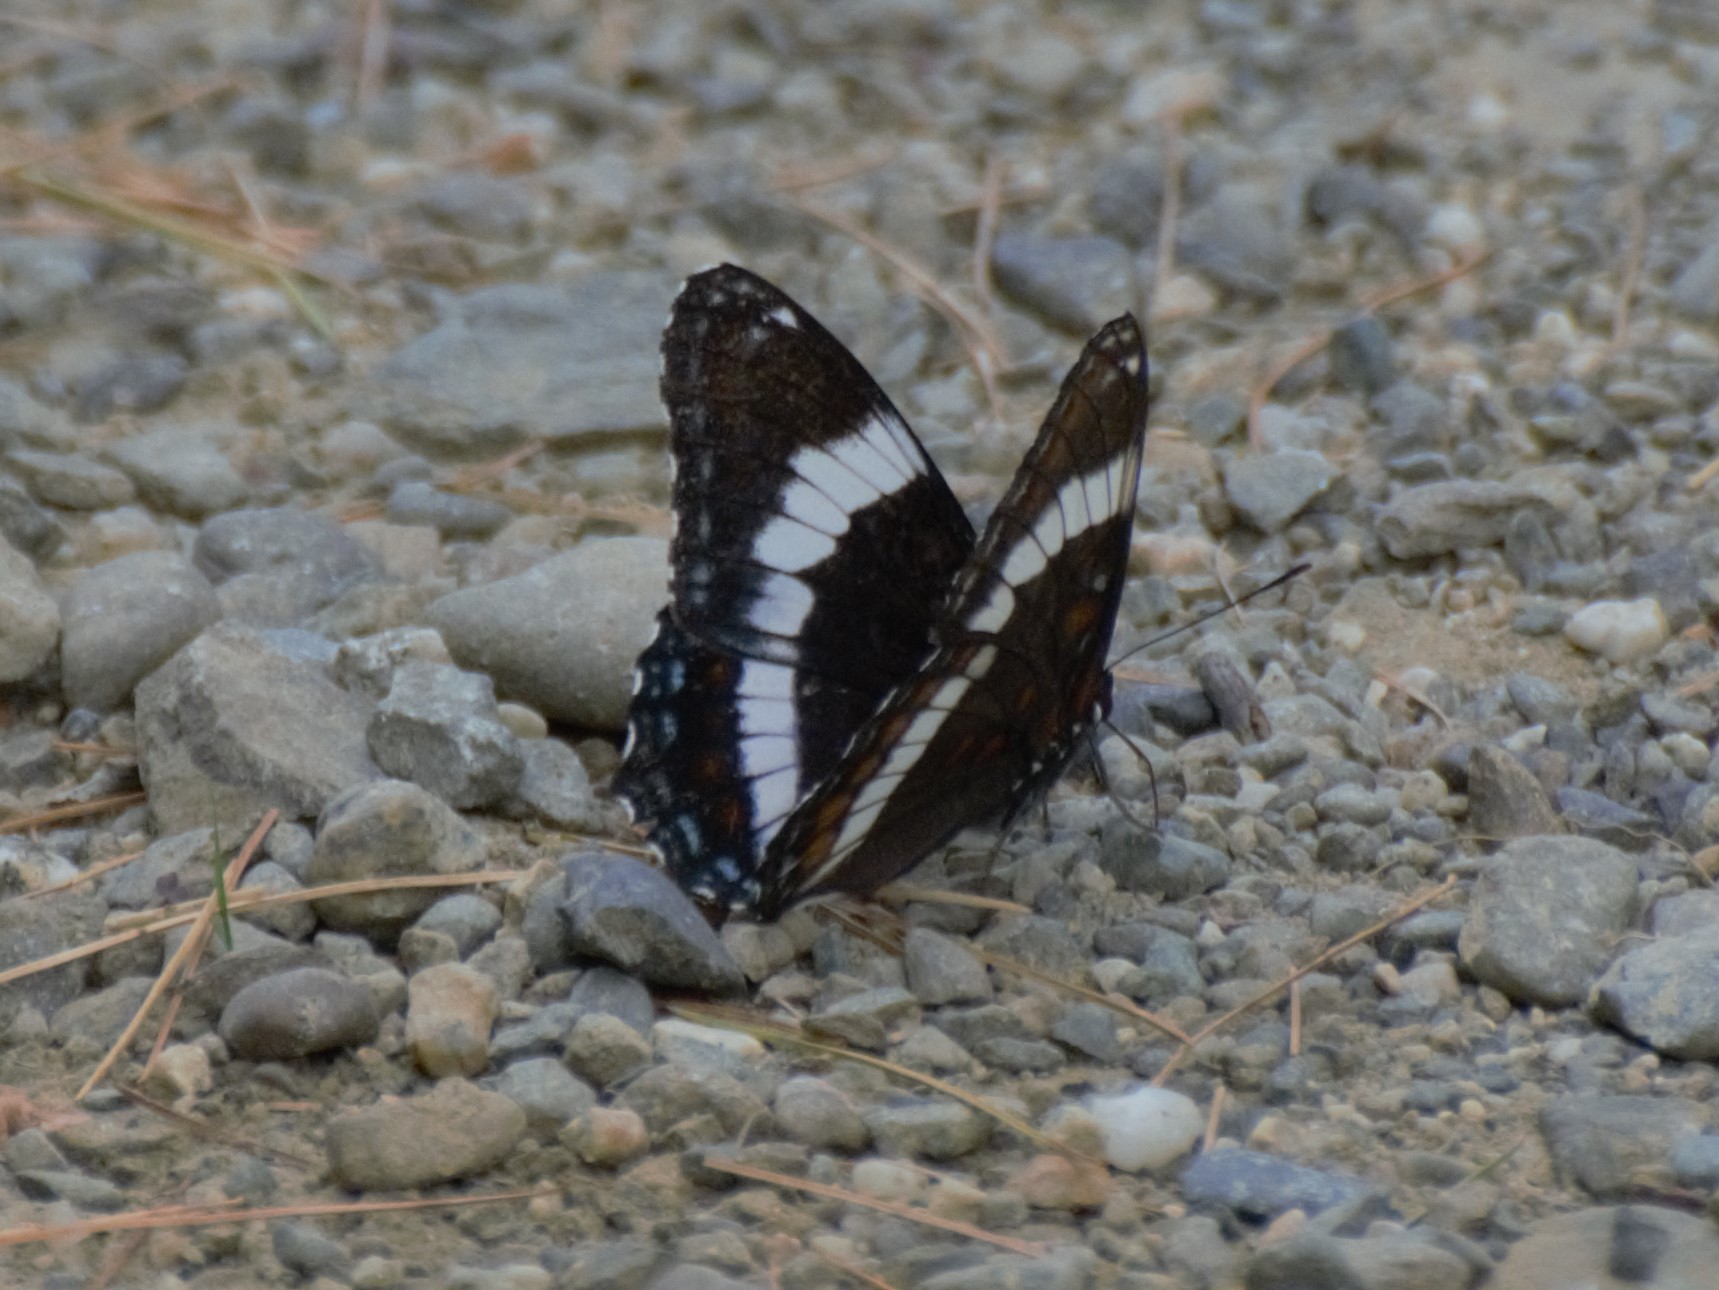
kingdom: Animalia
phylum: Arthropoda
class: Insecta
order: Lepidoptera
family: Nymphalidae
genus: Limenitis
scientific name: Limenitis arthemis
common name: Red-spotted admiral
